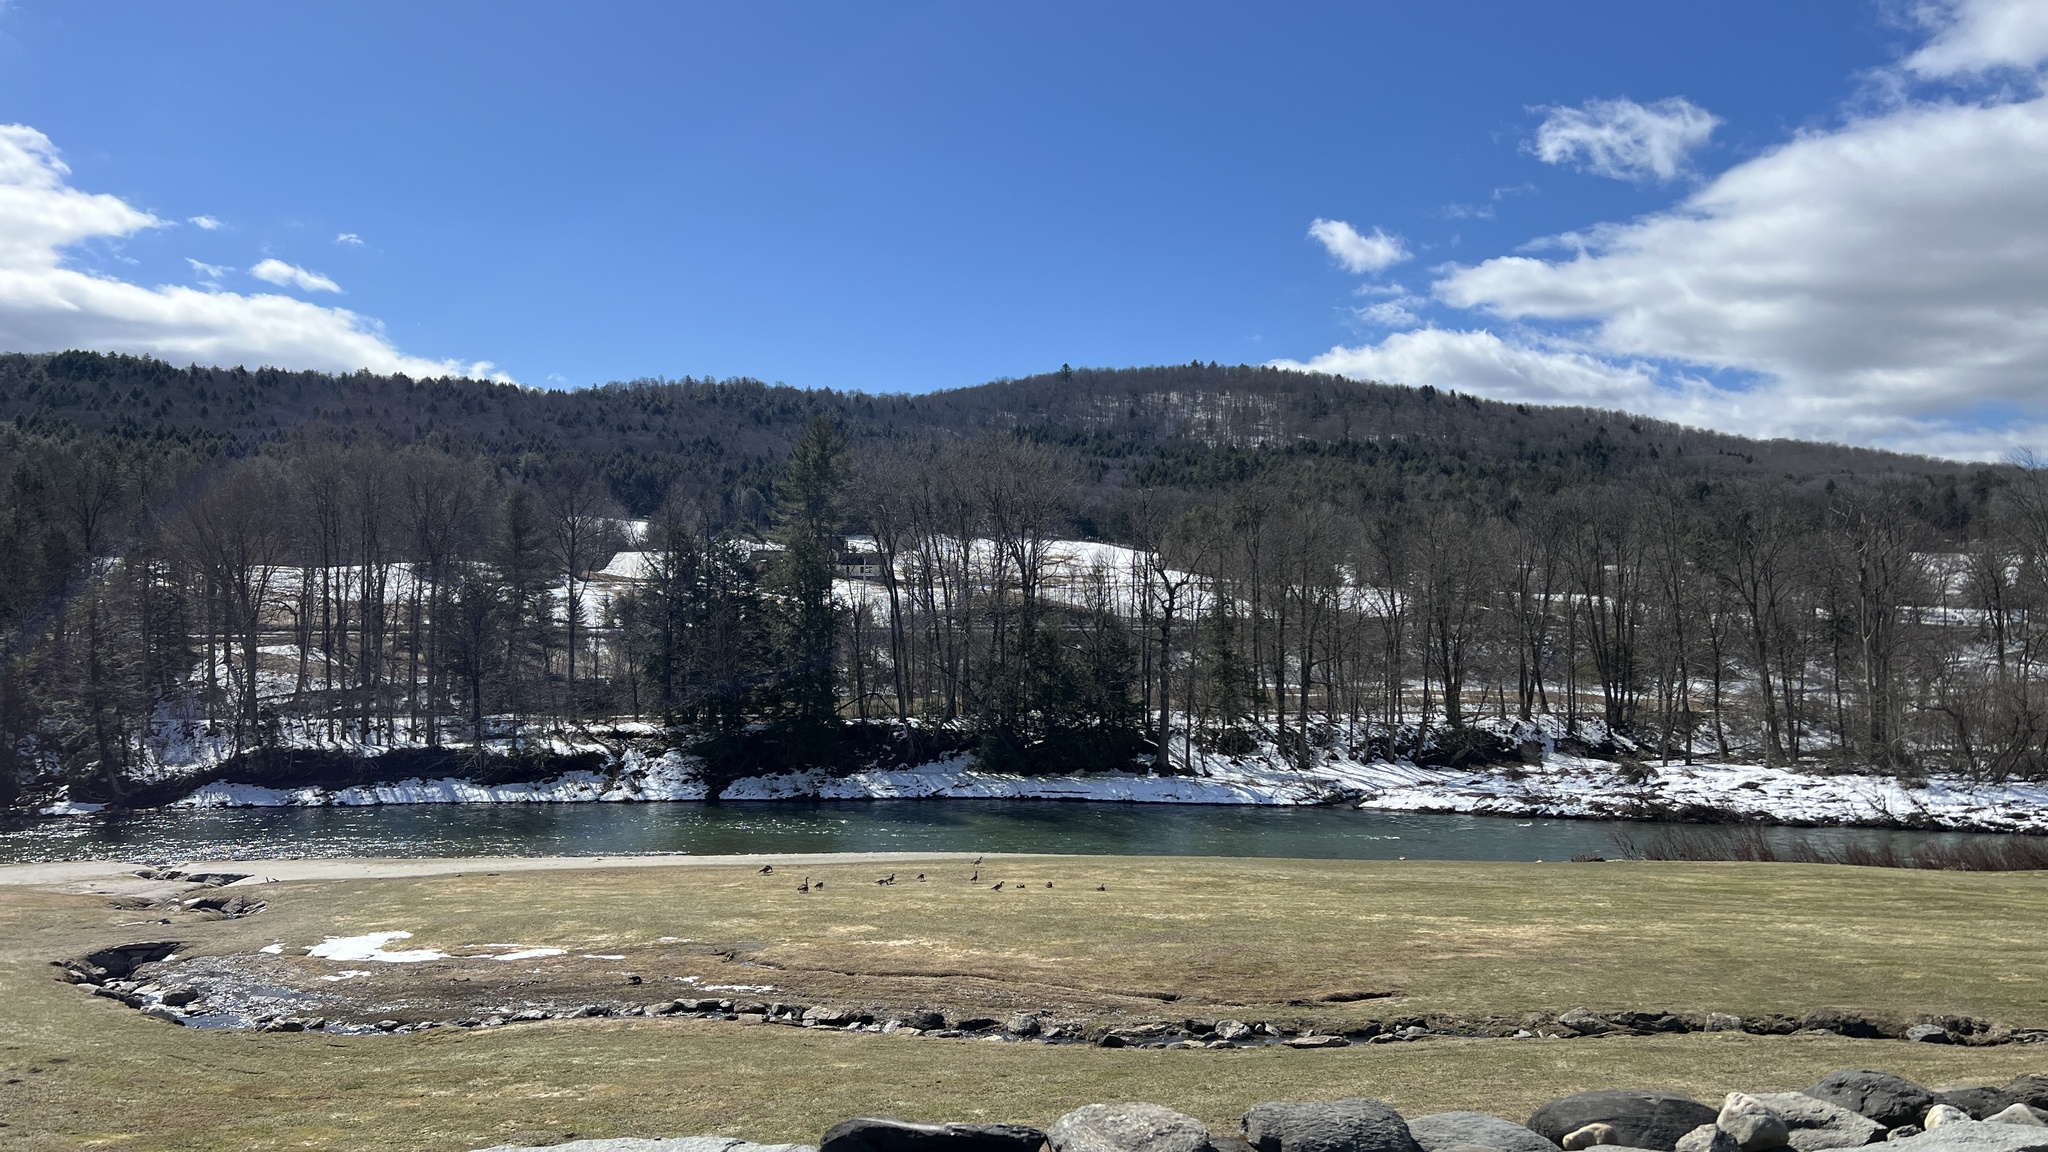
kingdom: Animalia
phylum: Chordata
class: Aves
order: Anseriformes
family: Anatidae
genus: Branta
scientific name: Branta canadensis
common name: Canada goose
